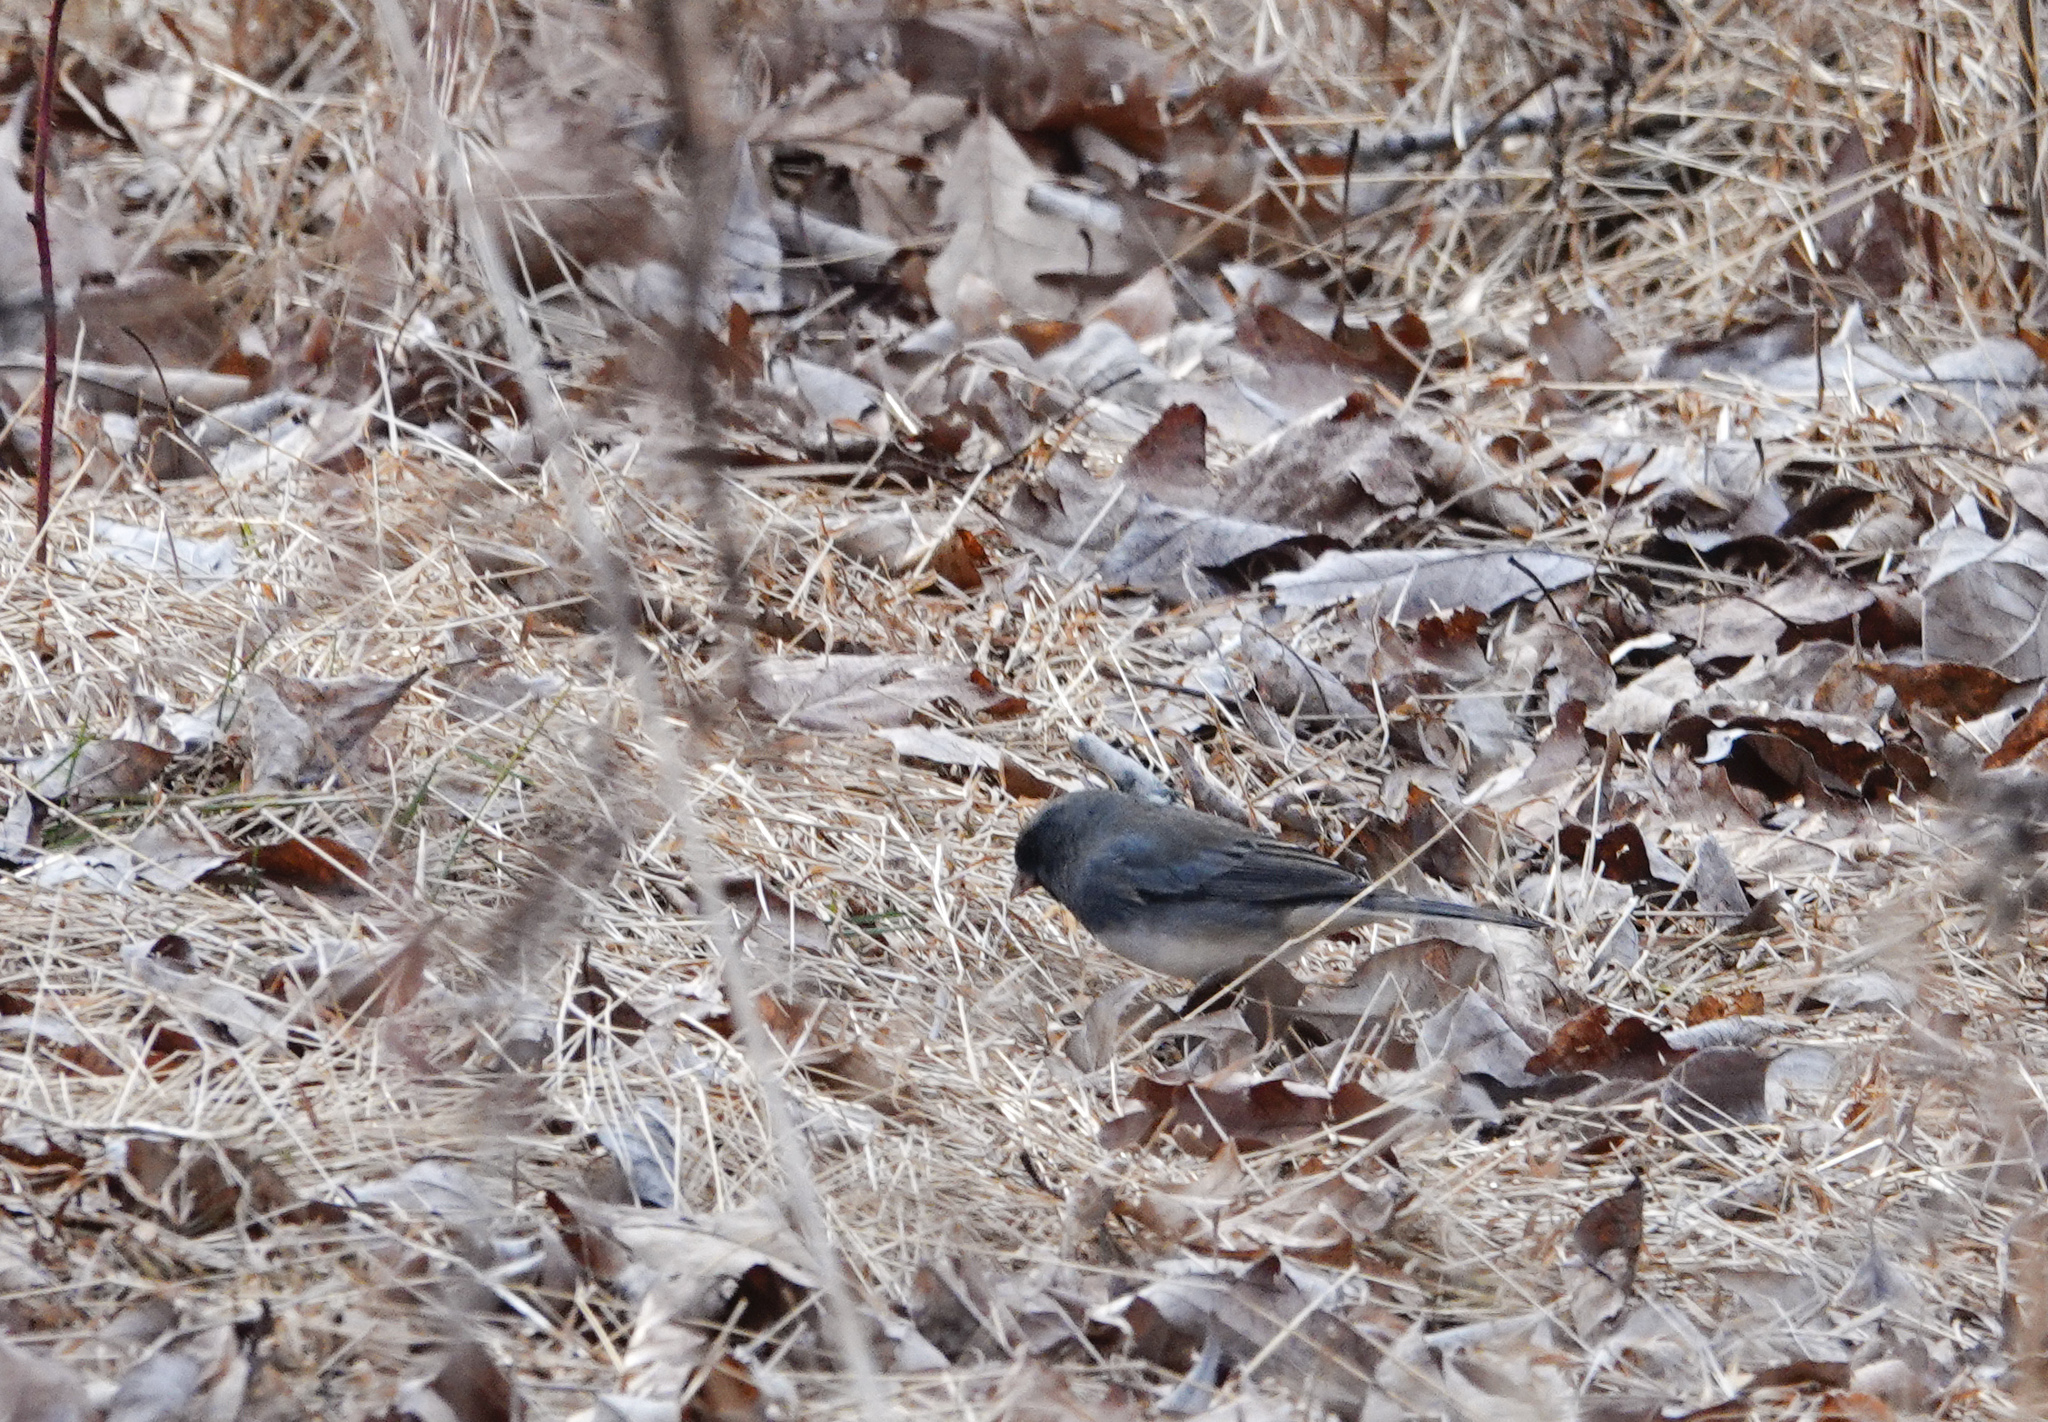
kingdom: Animalia
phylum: Chordata
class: Aves
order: Passeriformes
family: Passerellidae
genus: Junco
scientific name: Junco hyemalis
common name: Dark-eyed junco
